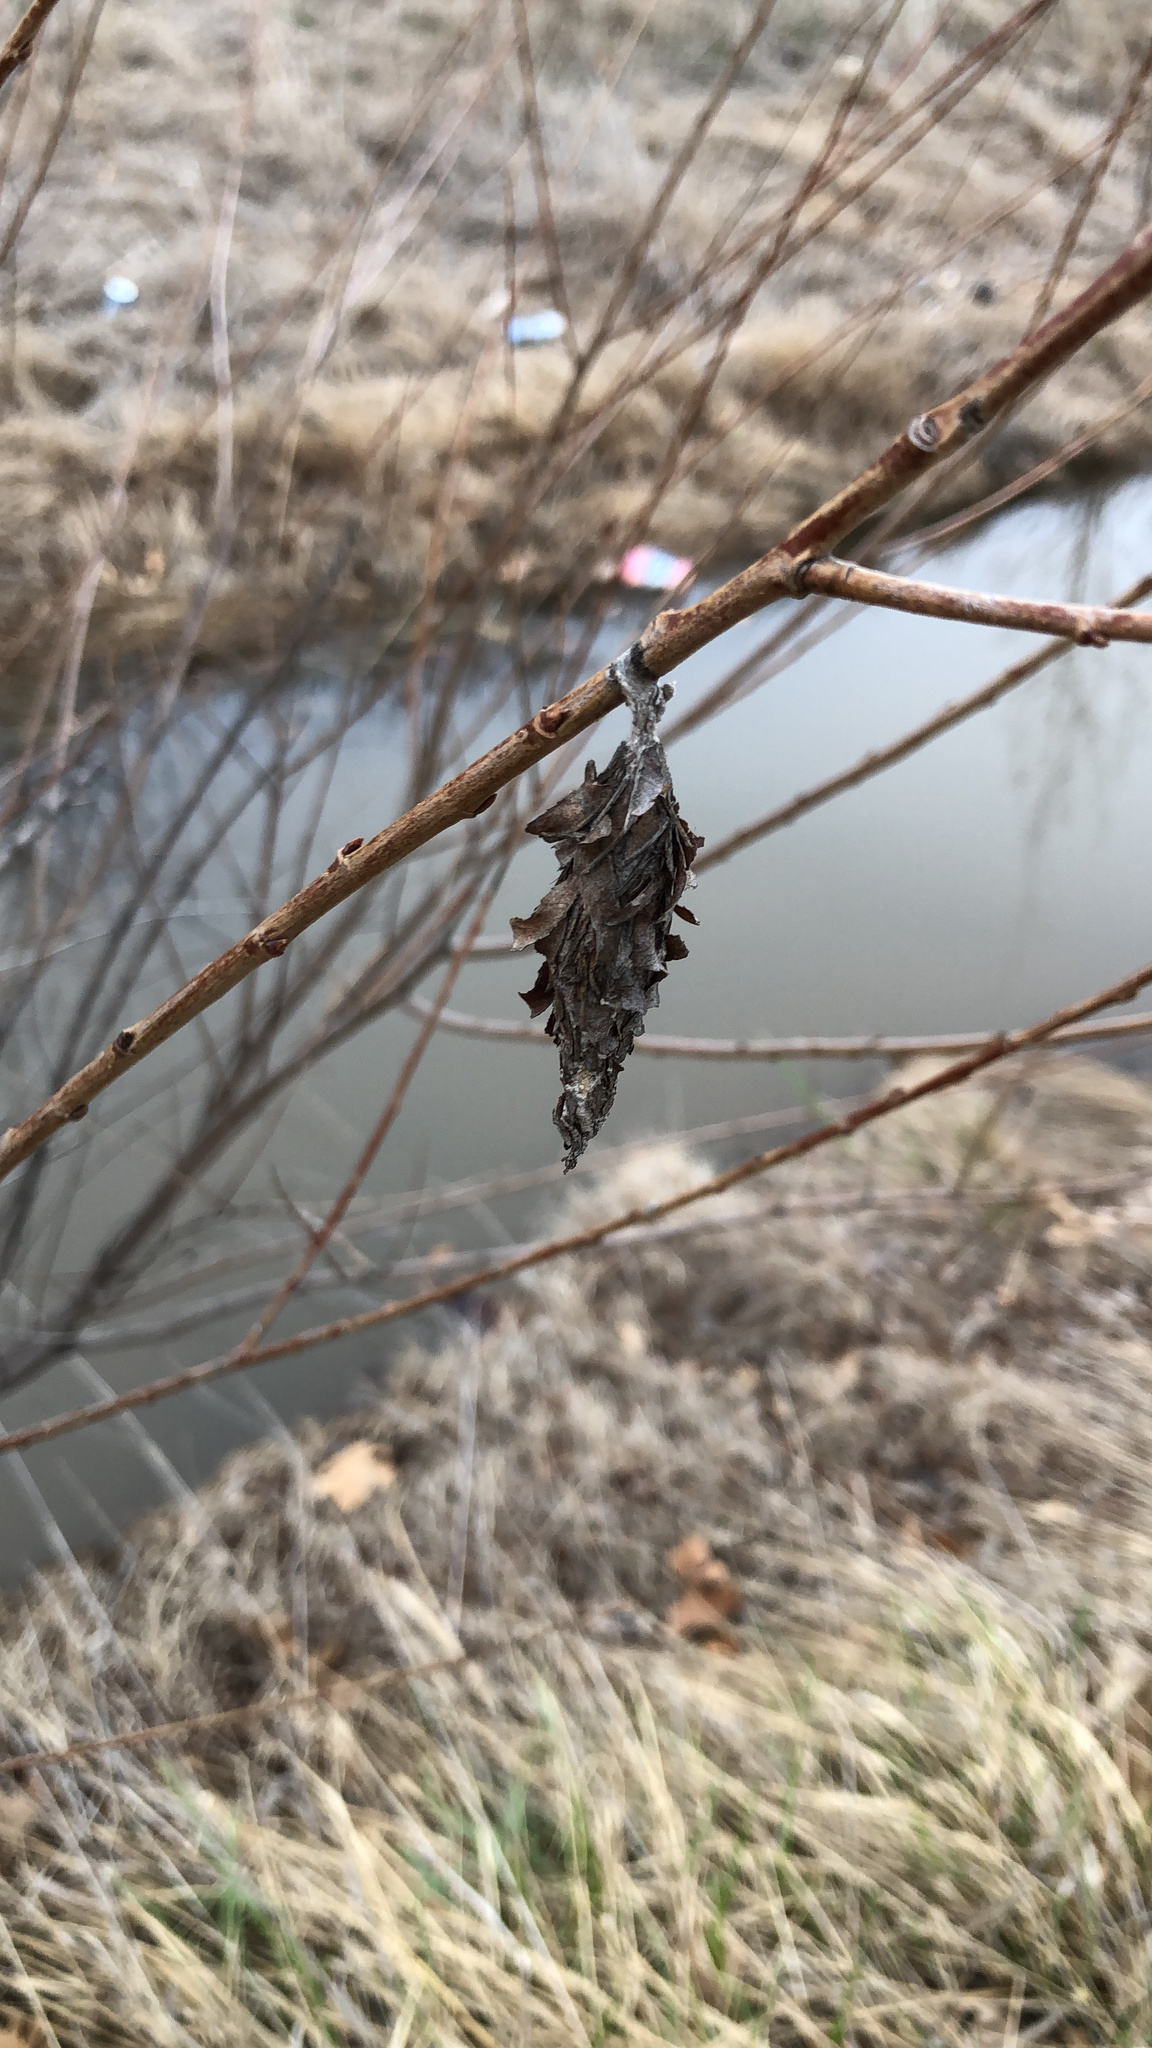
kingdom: Animalia
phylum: Arthropoda
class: Insecta
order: Lepidoptera
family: Psychidae
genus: Thyridopteryx
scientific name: Thyridopteryx ephemeraeformis
